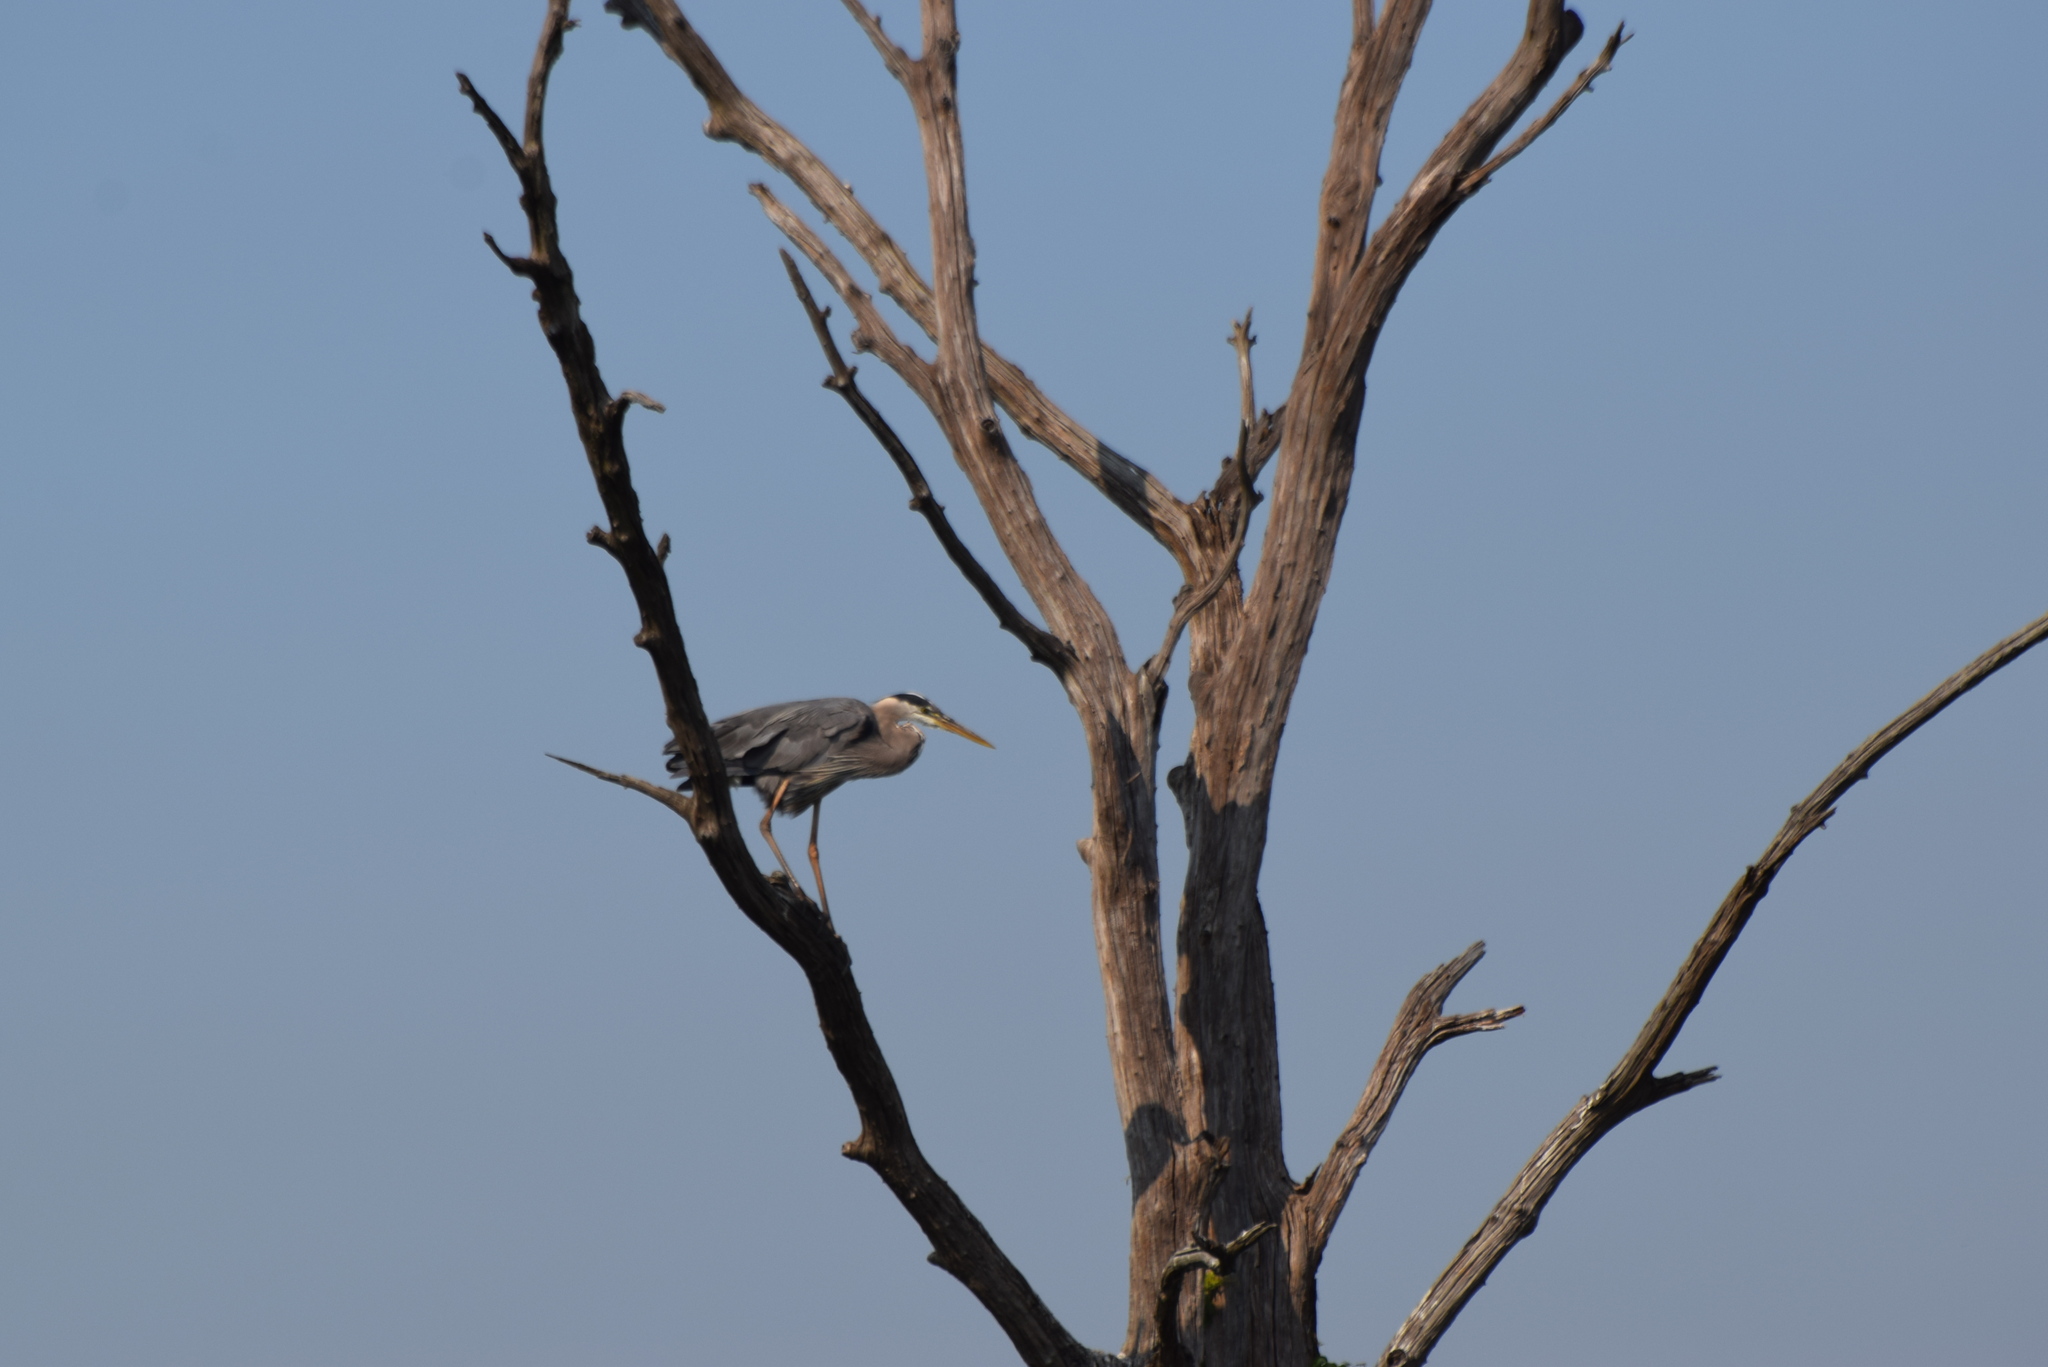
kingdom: Animalia
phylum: Chordata
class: Aves
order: Pelecaniformes
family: Ardeidae
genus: Ardea
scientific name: Ardea herodias
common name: Great blue heron
